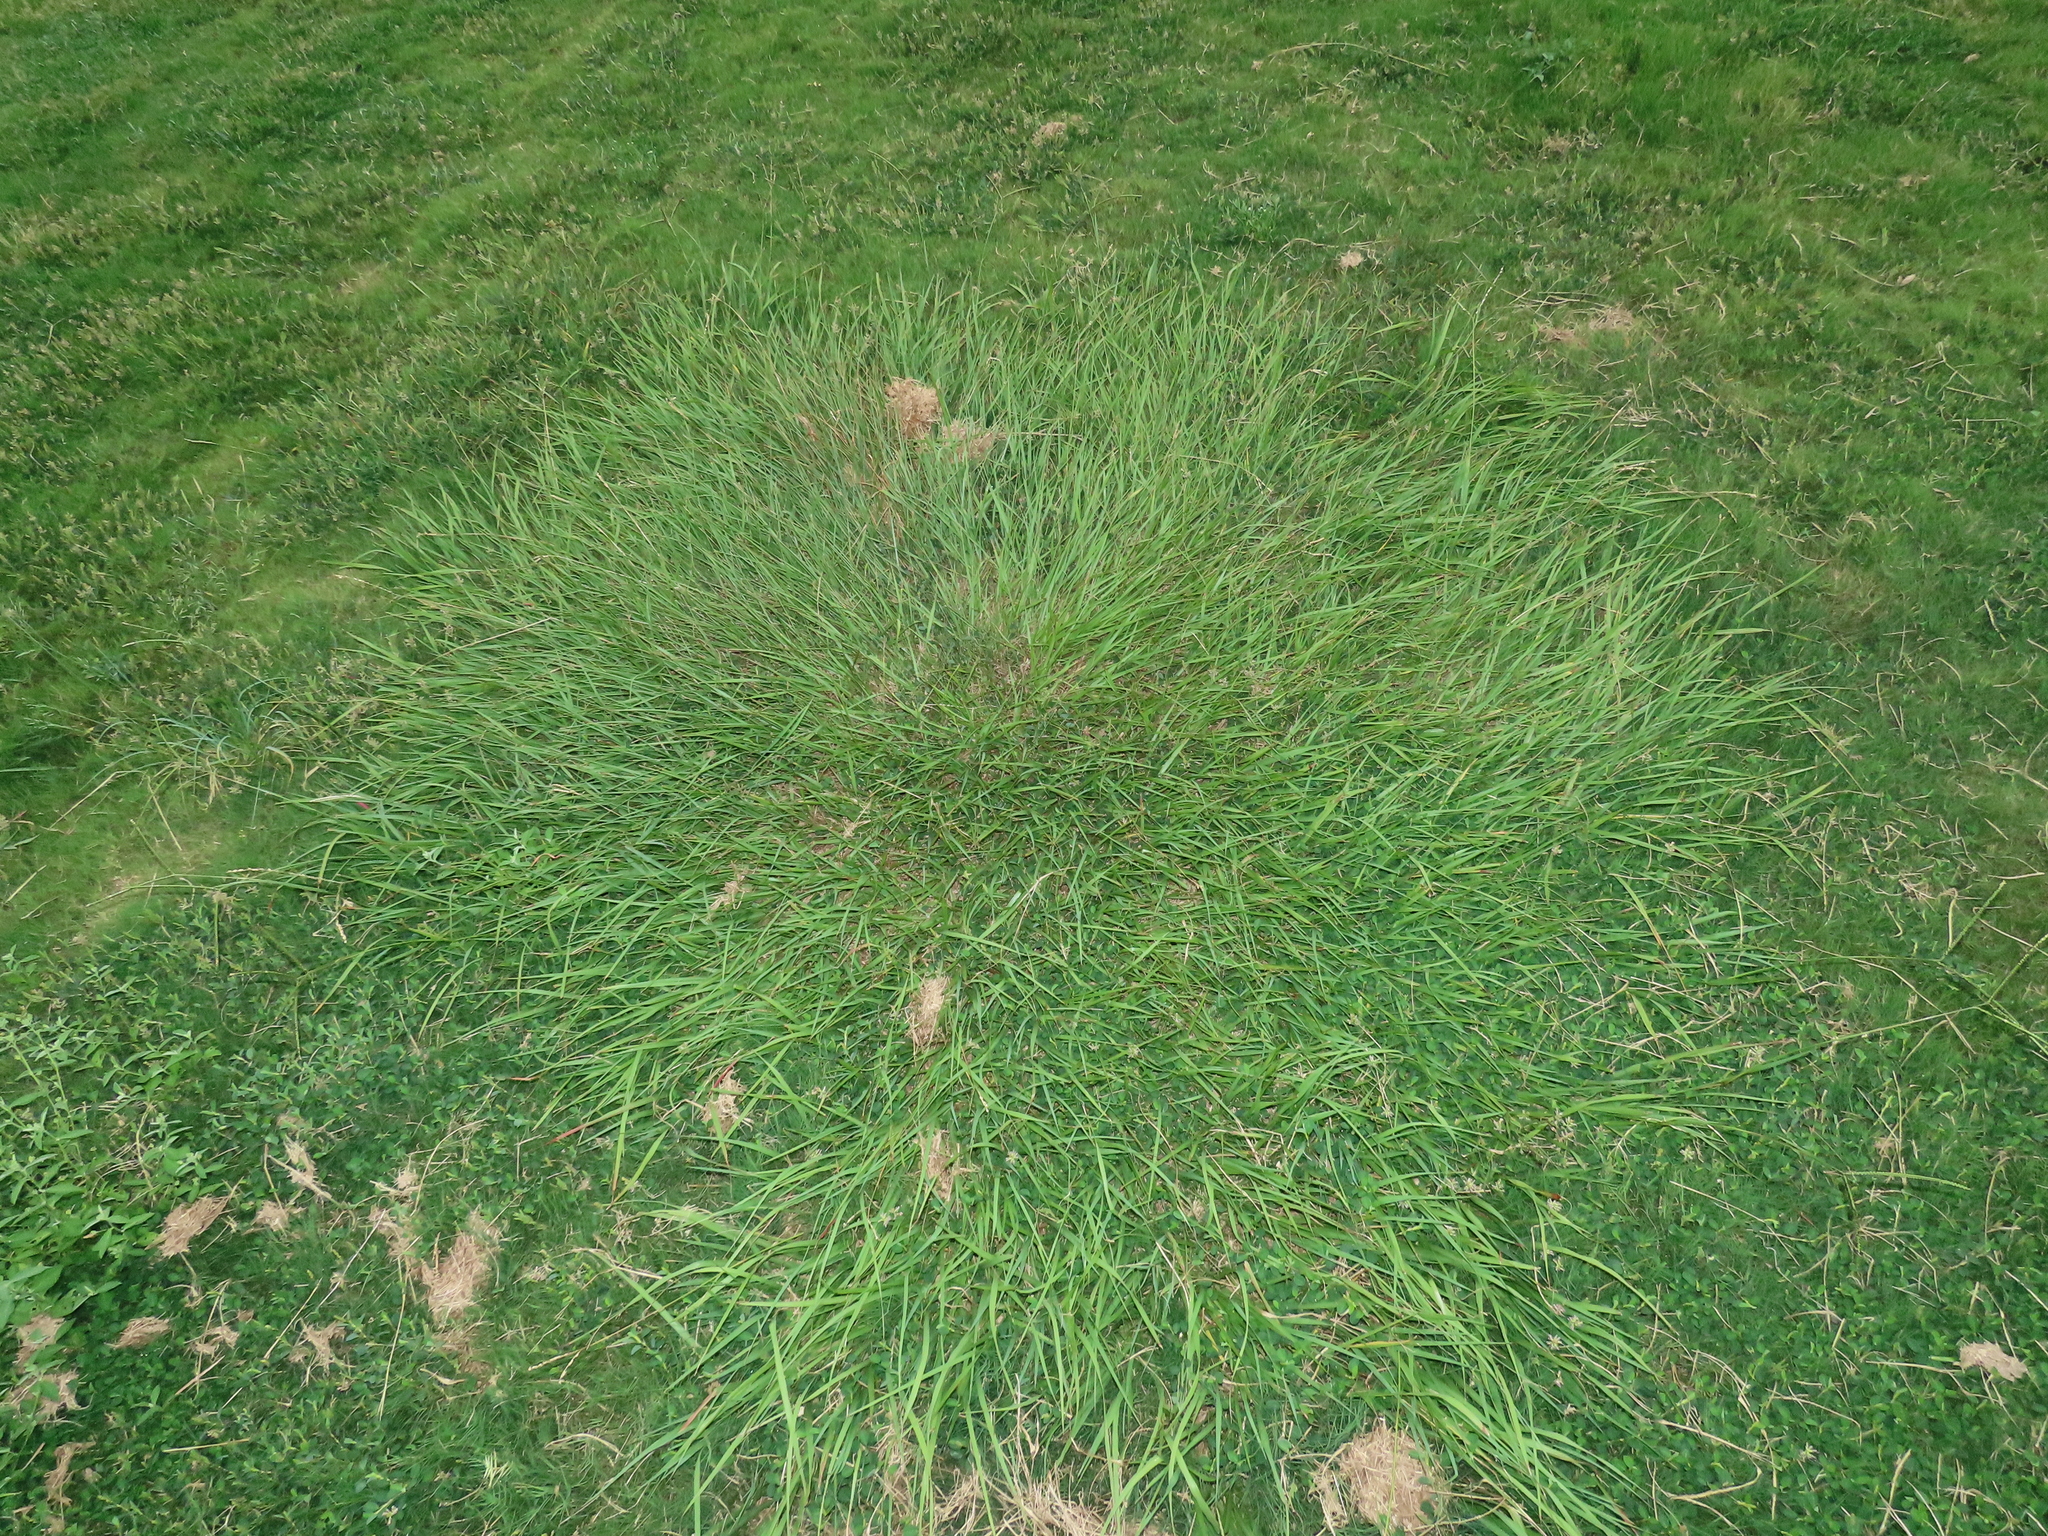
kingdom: Plantae
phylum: Tracheophyta
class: Liliopsida
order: Poales
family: Poaceae
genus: Paspalum
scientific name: Paspalum notatum
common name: Bahiagrass
